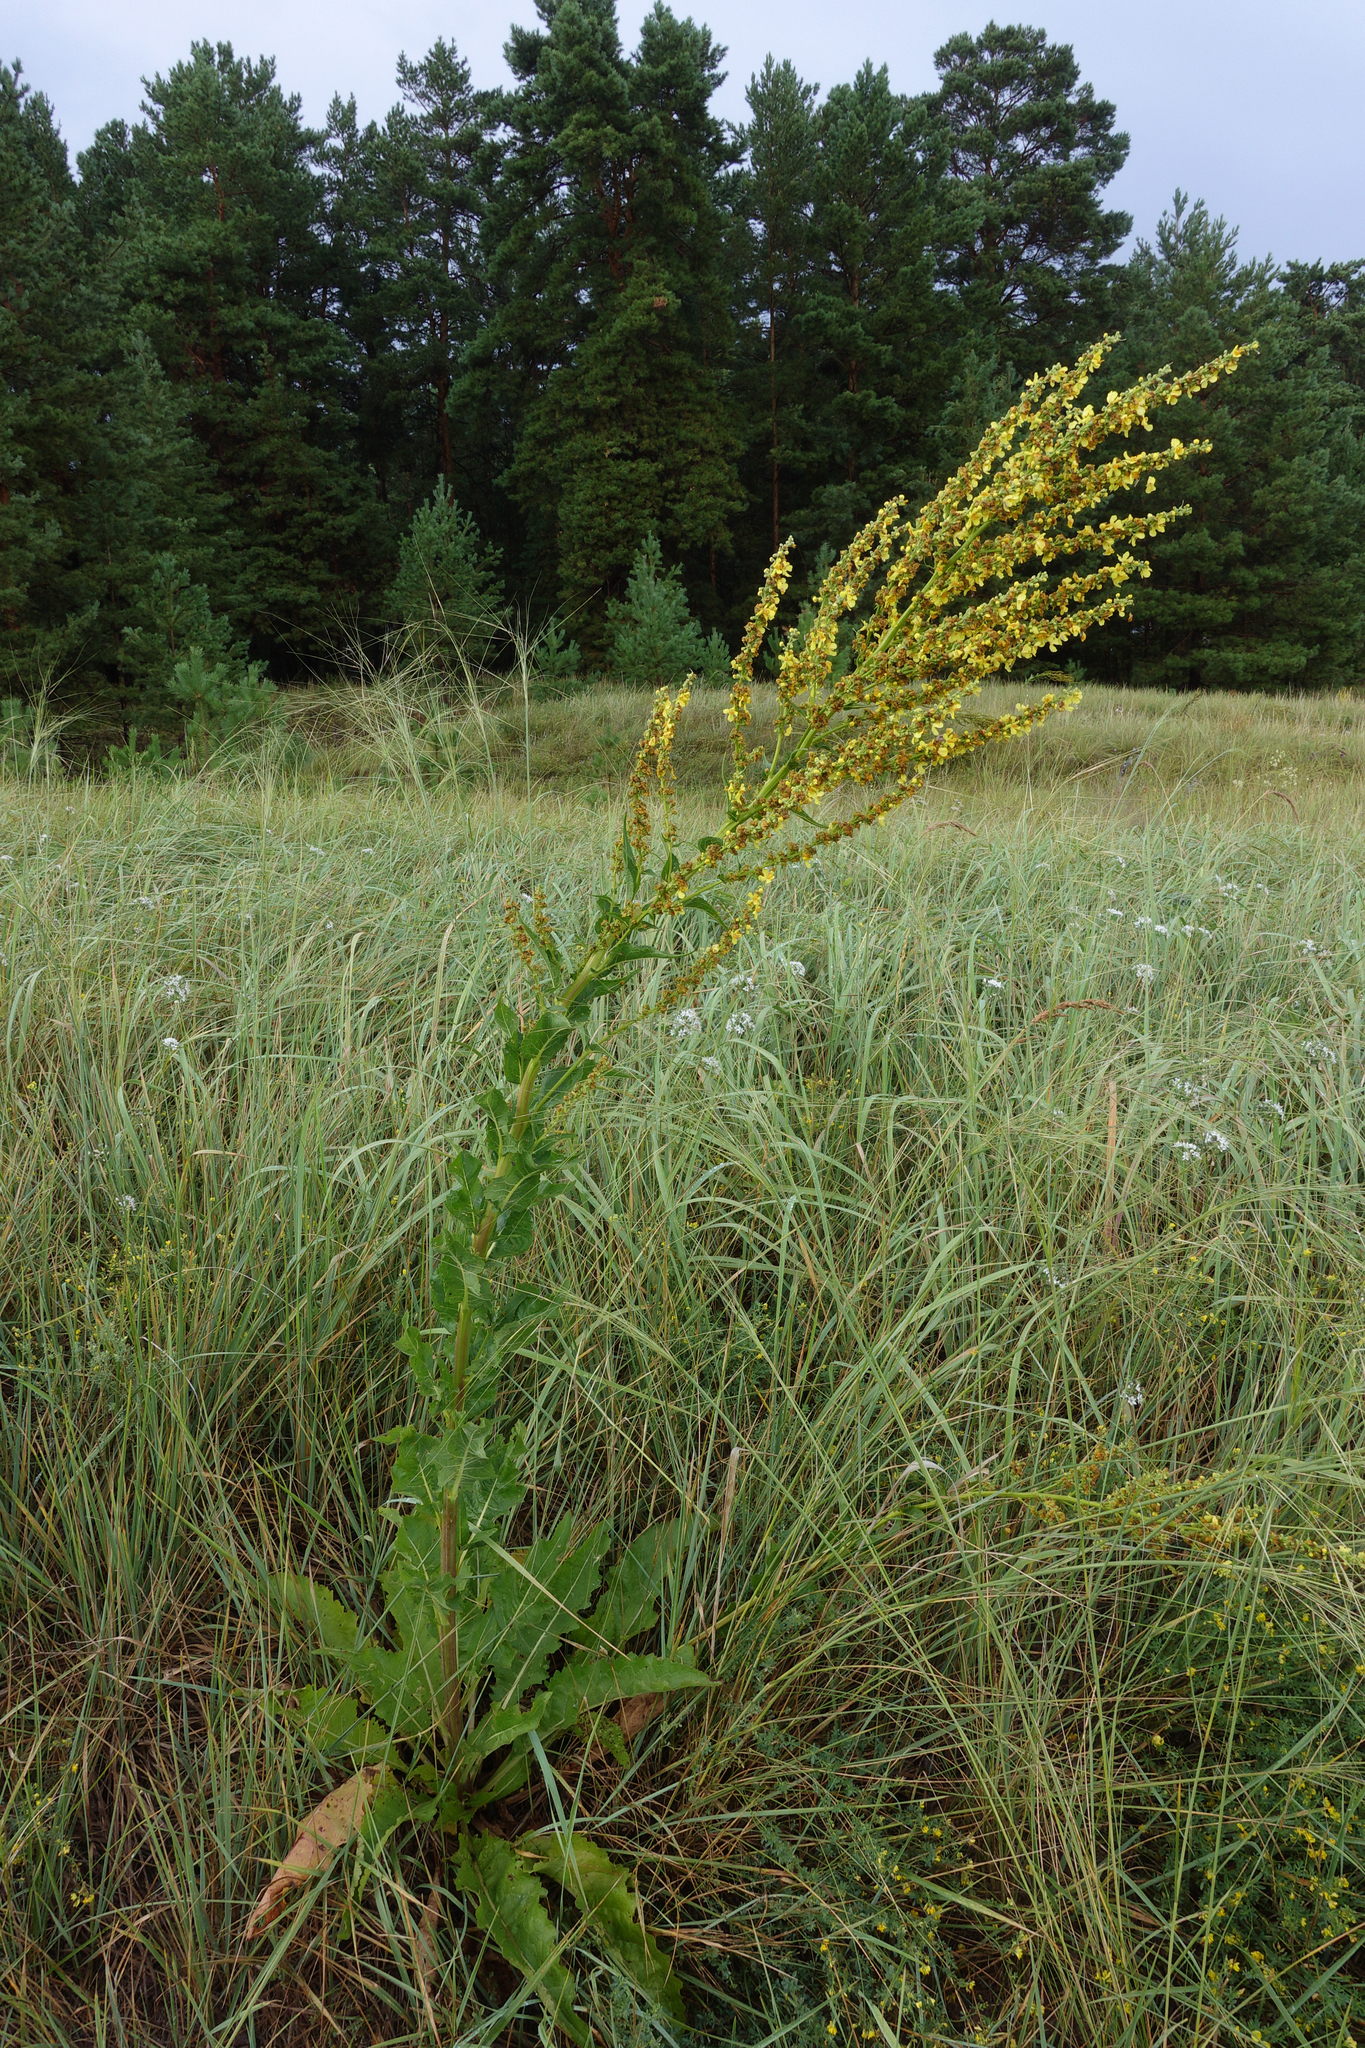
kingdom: Plantae
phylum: Tracheophyta
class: Magnoliopsida
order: Lamiales
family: Scrophulariaceae
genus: Verbascum
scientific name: Verbascum lychnitis
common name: White mullein
